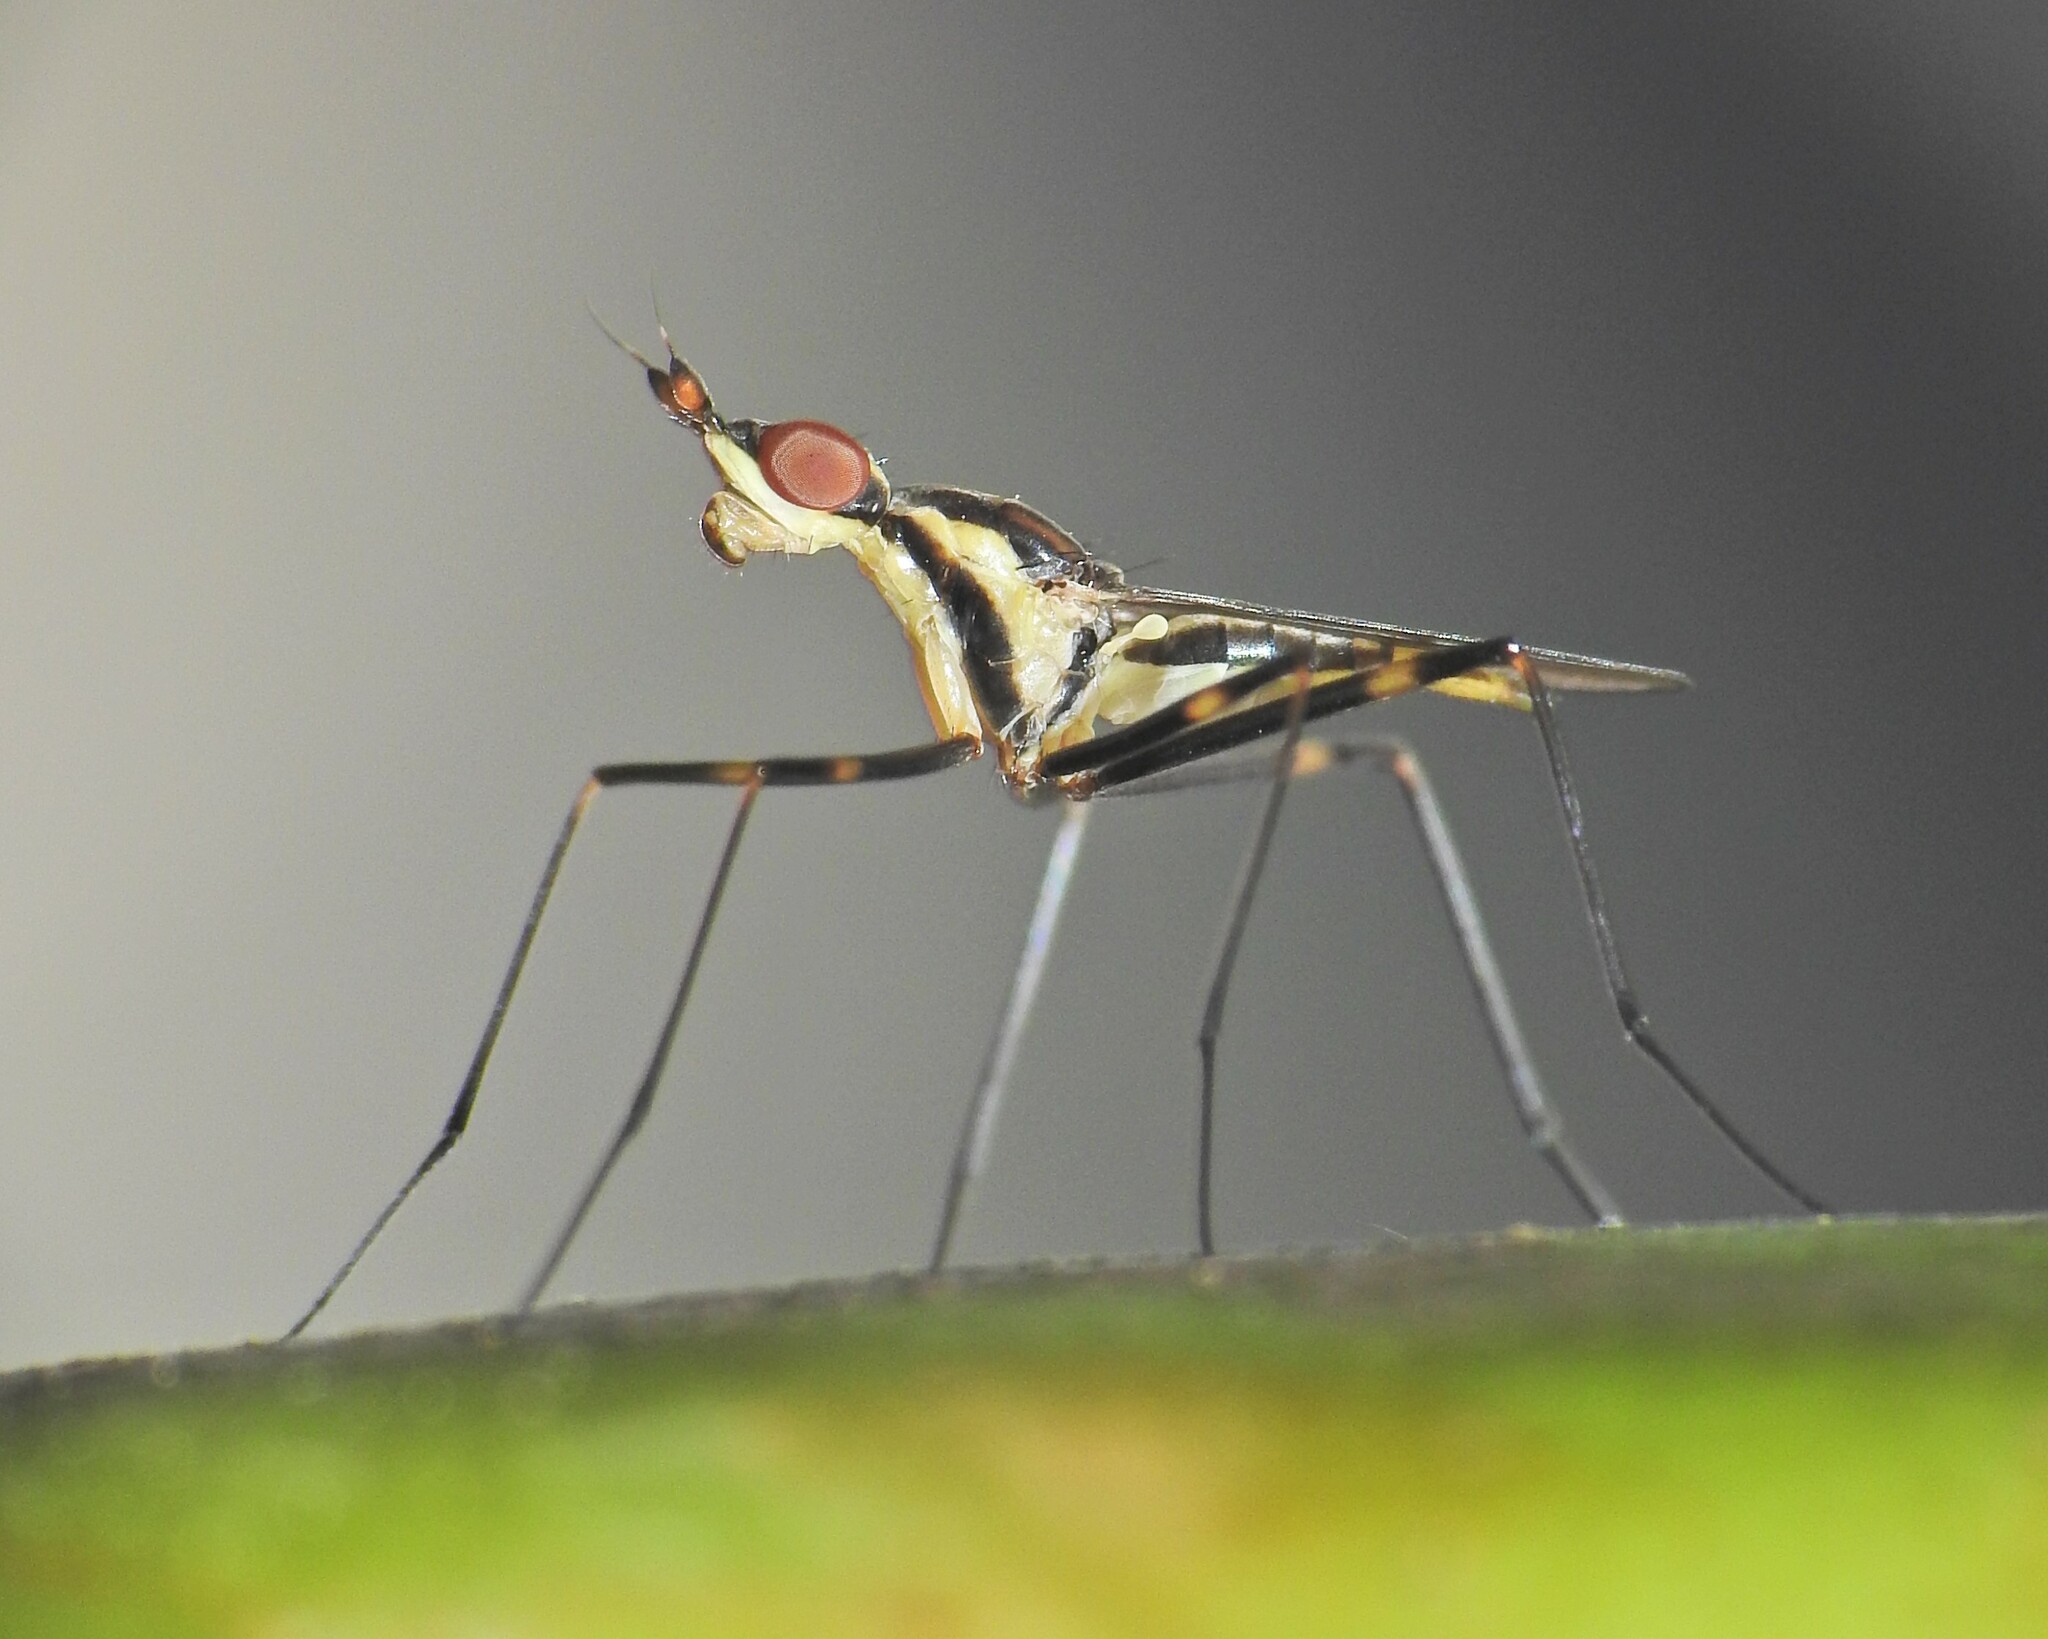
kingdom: Animalia
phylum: Arthropoda
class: Insecta
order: Diptera
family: Neriidae
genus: Derocephalus
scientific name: Derocephalus angusticollis
